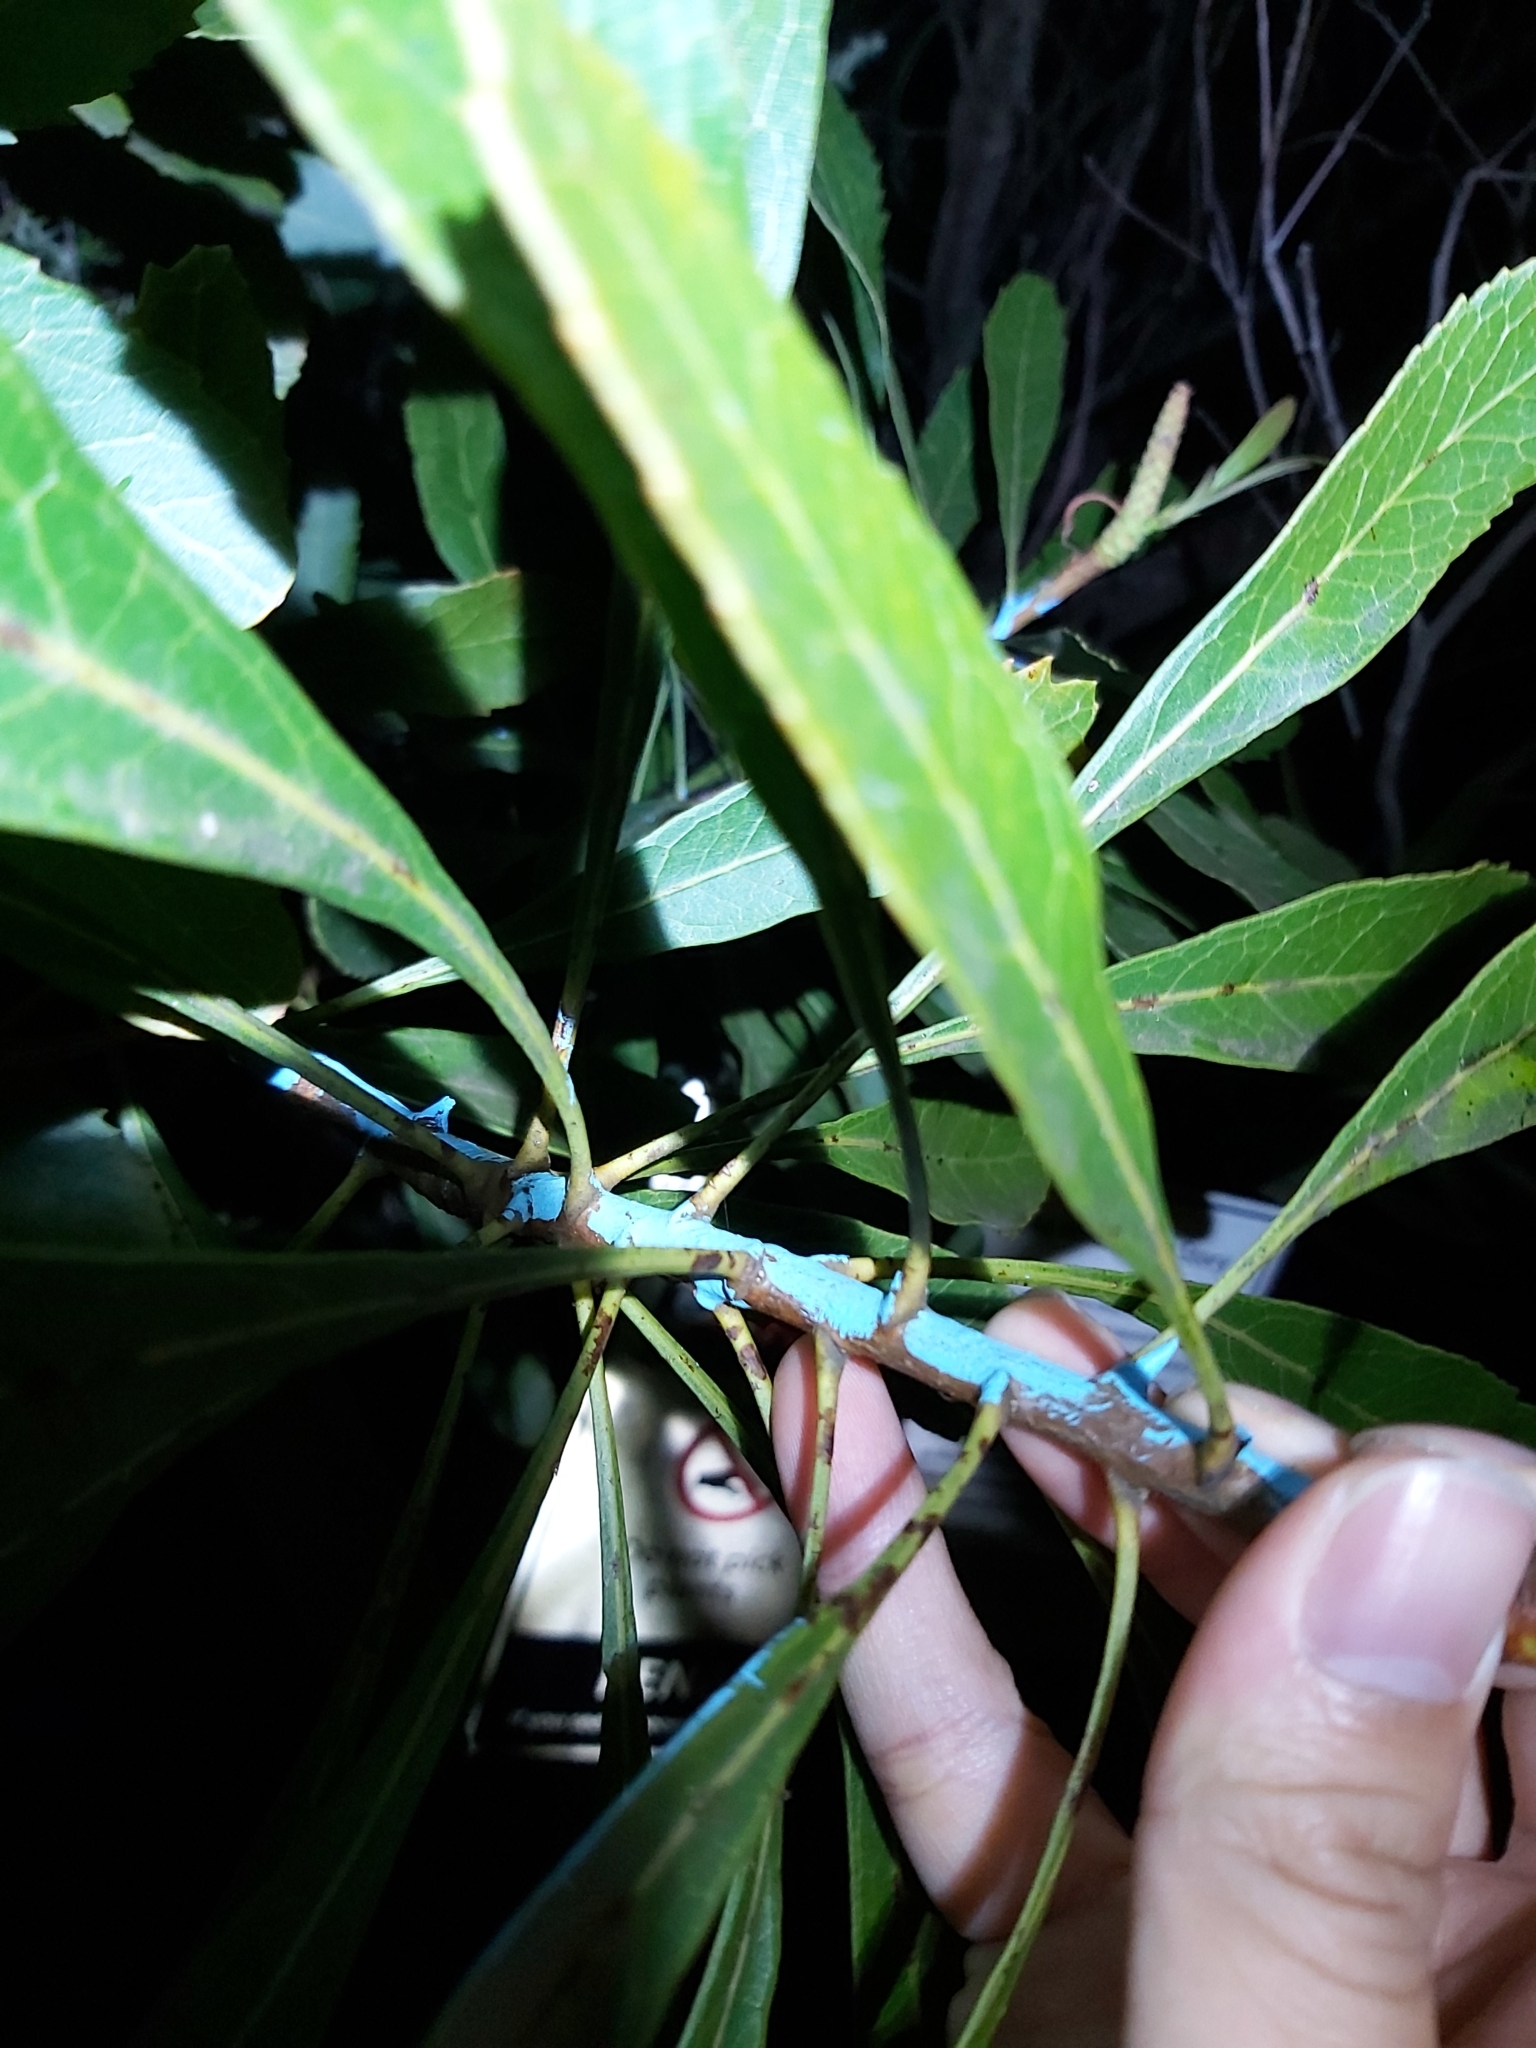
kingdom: Plantae
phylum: Tracheophyta
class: Magnoliopsida
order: Proteales
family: Proteaceae
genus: Telopea
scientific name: Telopea speciosissima
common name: New south wales waratah
